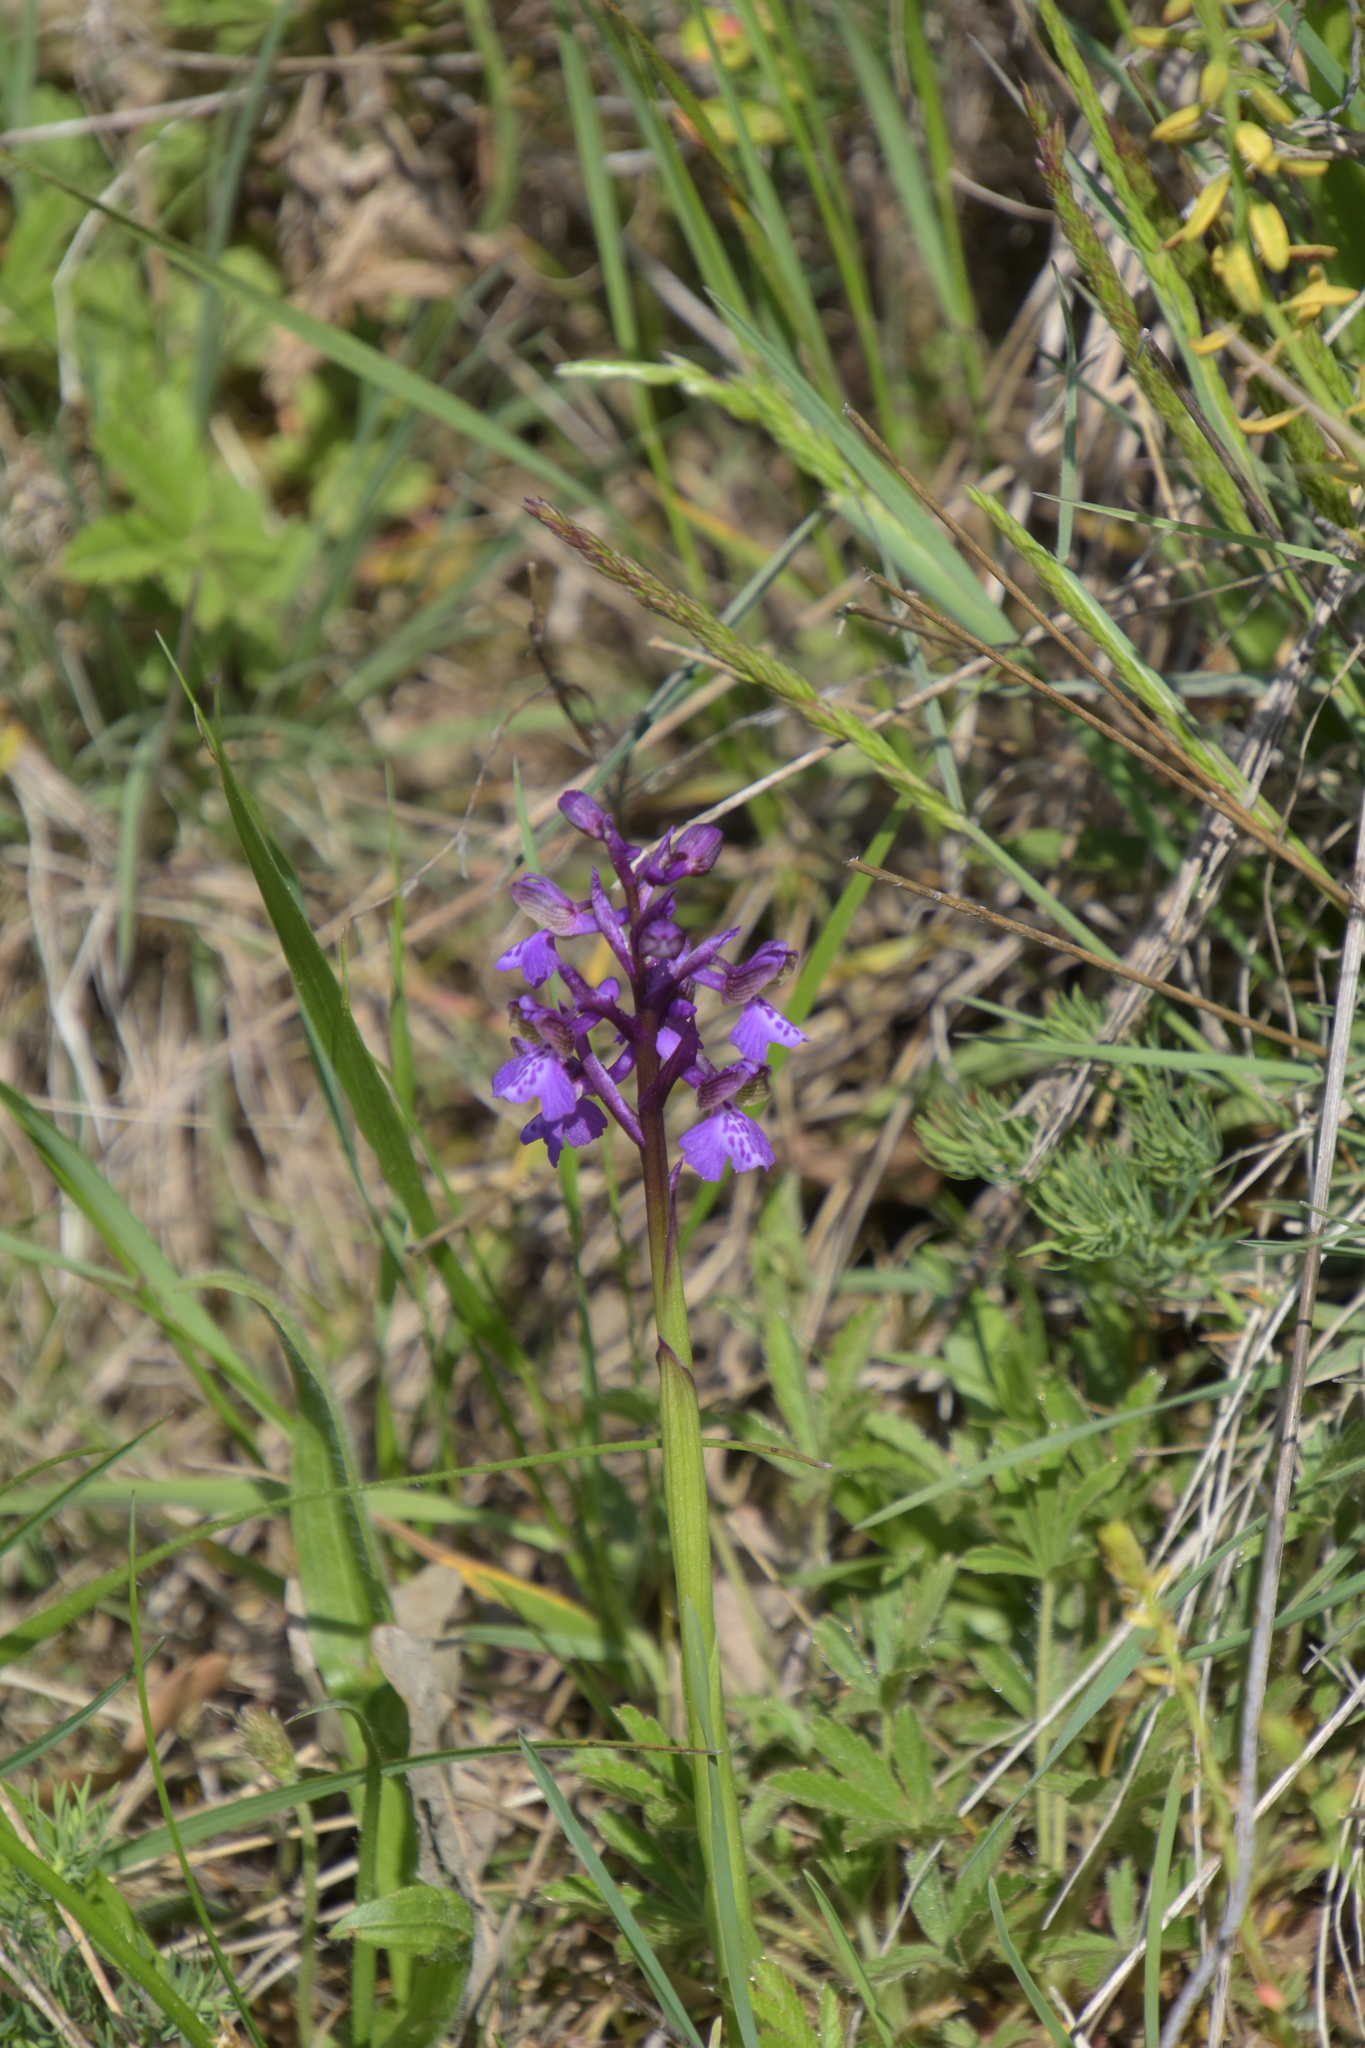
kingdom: Plantae
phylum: Tracheophyta
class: Liliopsida
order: Asparagales
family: Orchidaceae
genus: Anacamptis
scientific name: Anacamptis morio
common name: Green-winged orchid
